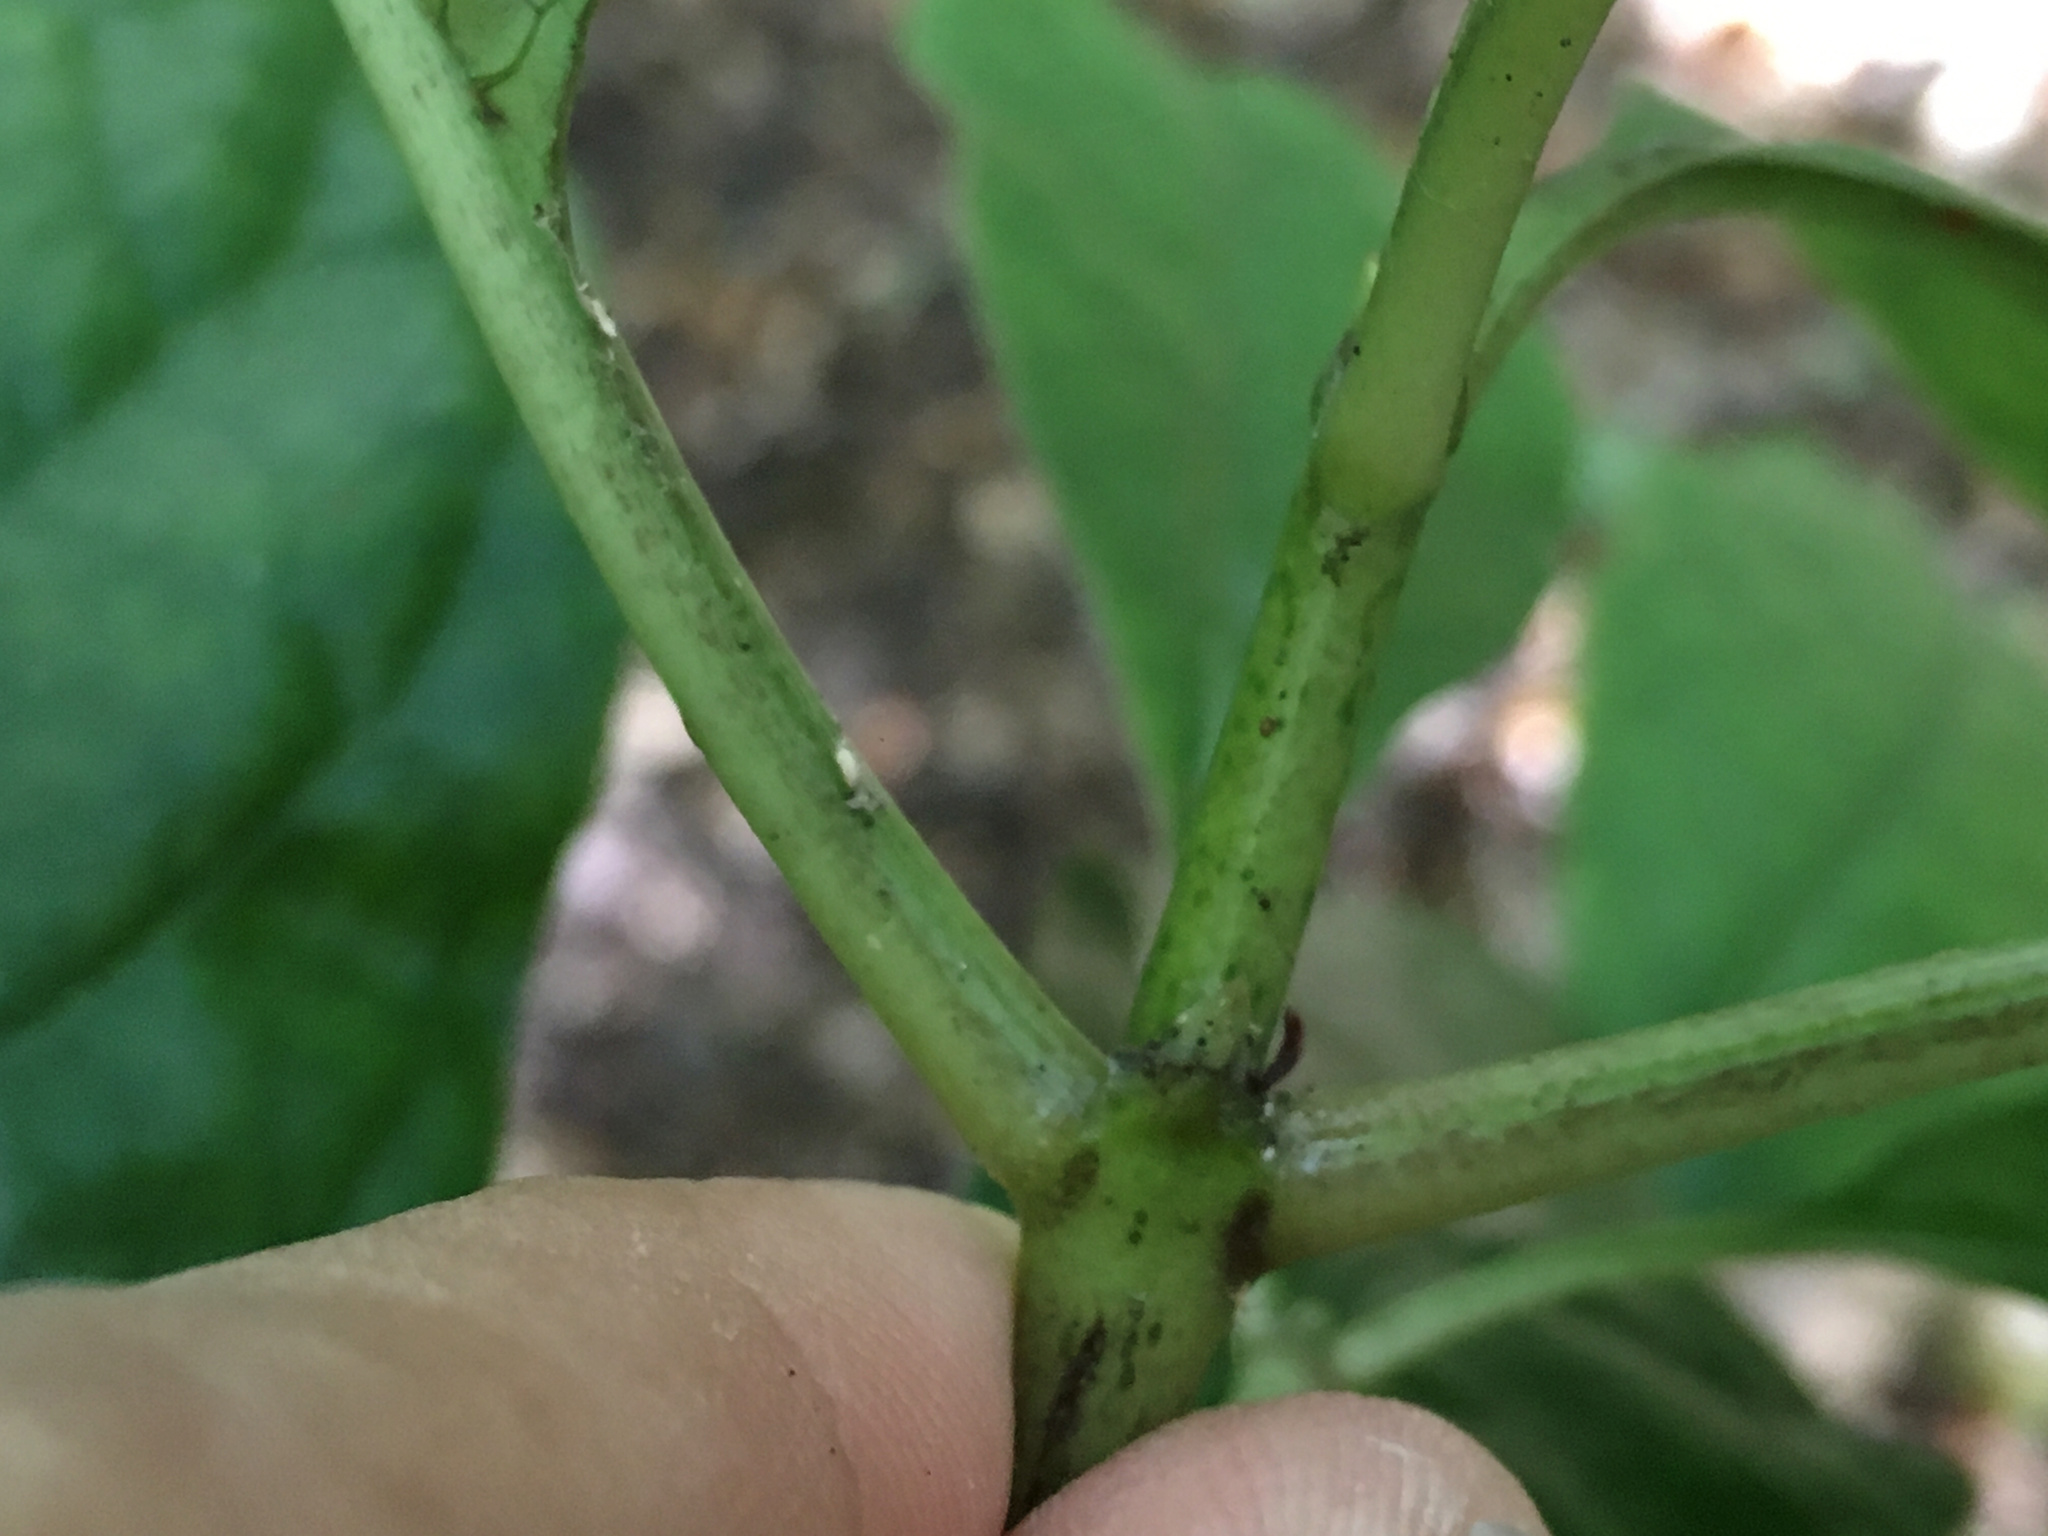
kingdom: Plantae
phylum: Tracheophyta
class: Magnoliopsida
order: Gentianales
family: Rubiaceae
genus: Coprosma
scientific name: Coprosma autumnalis
